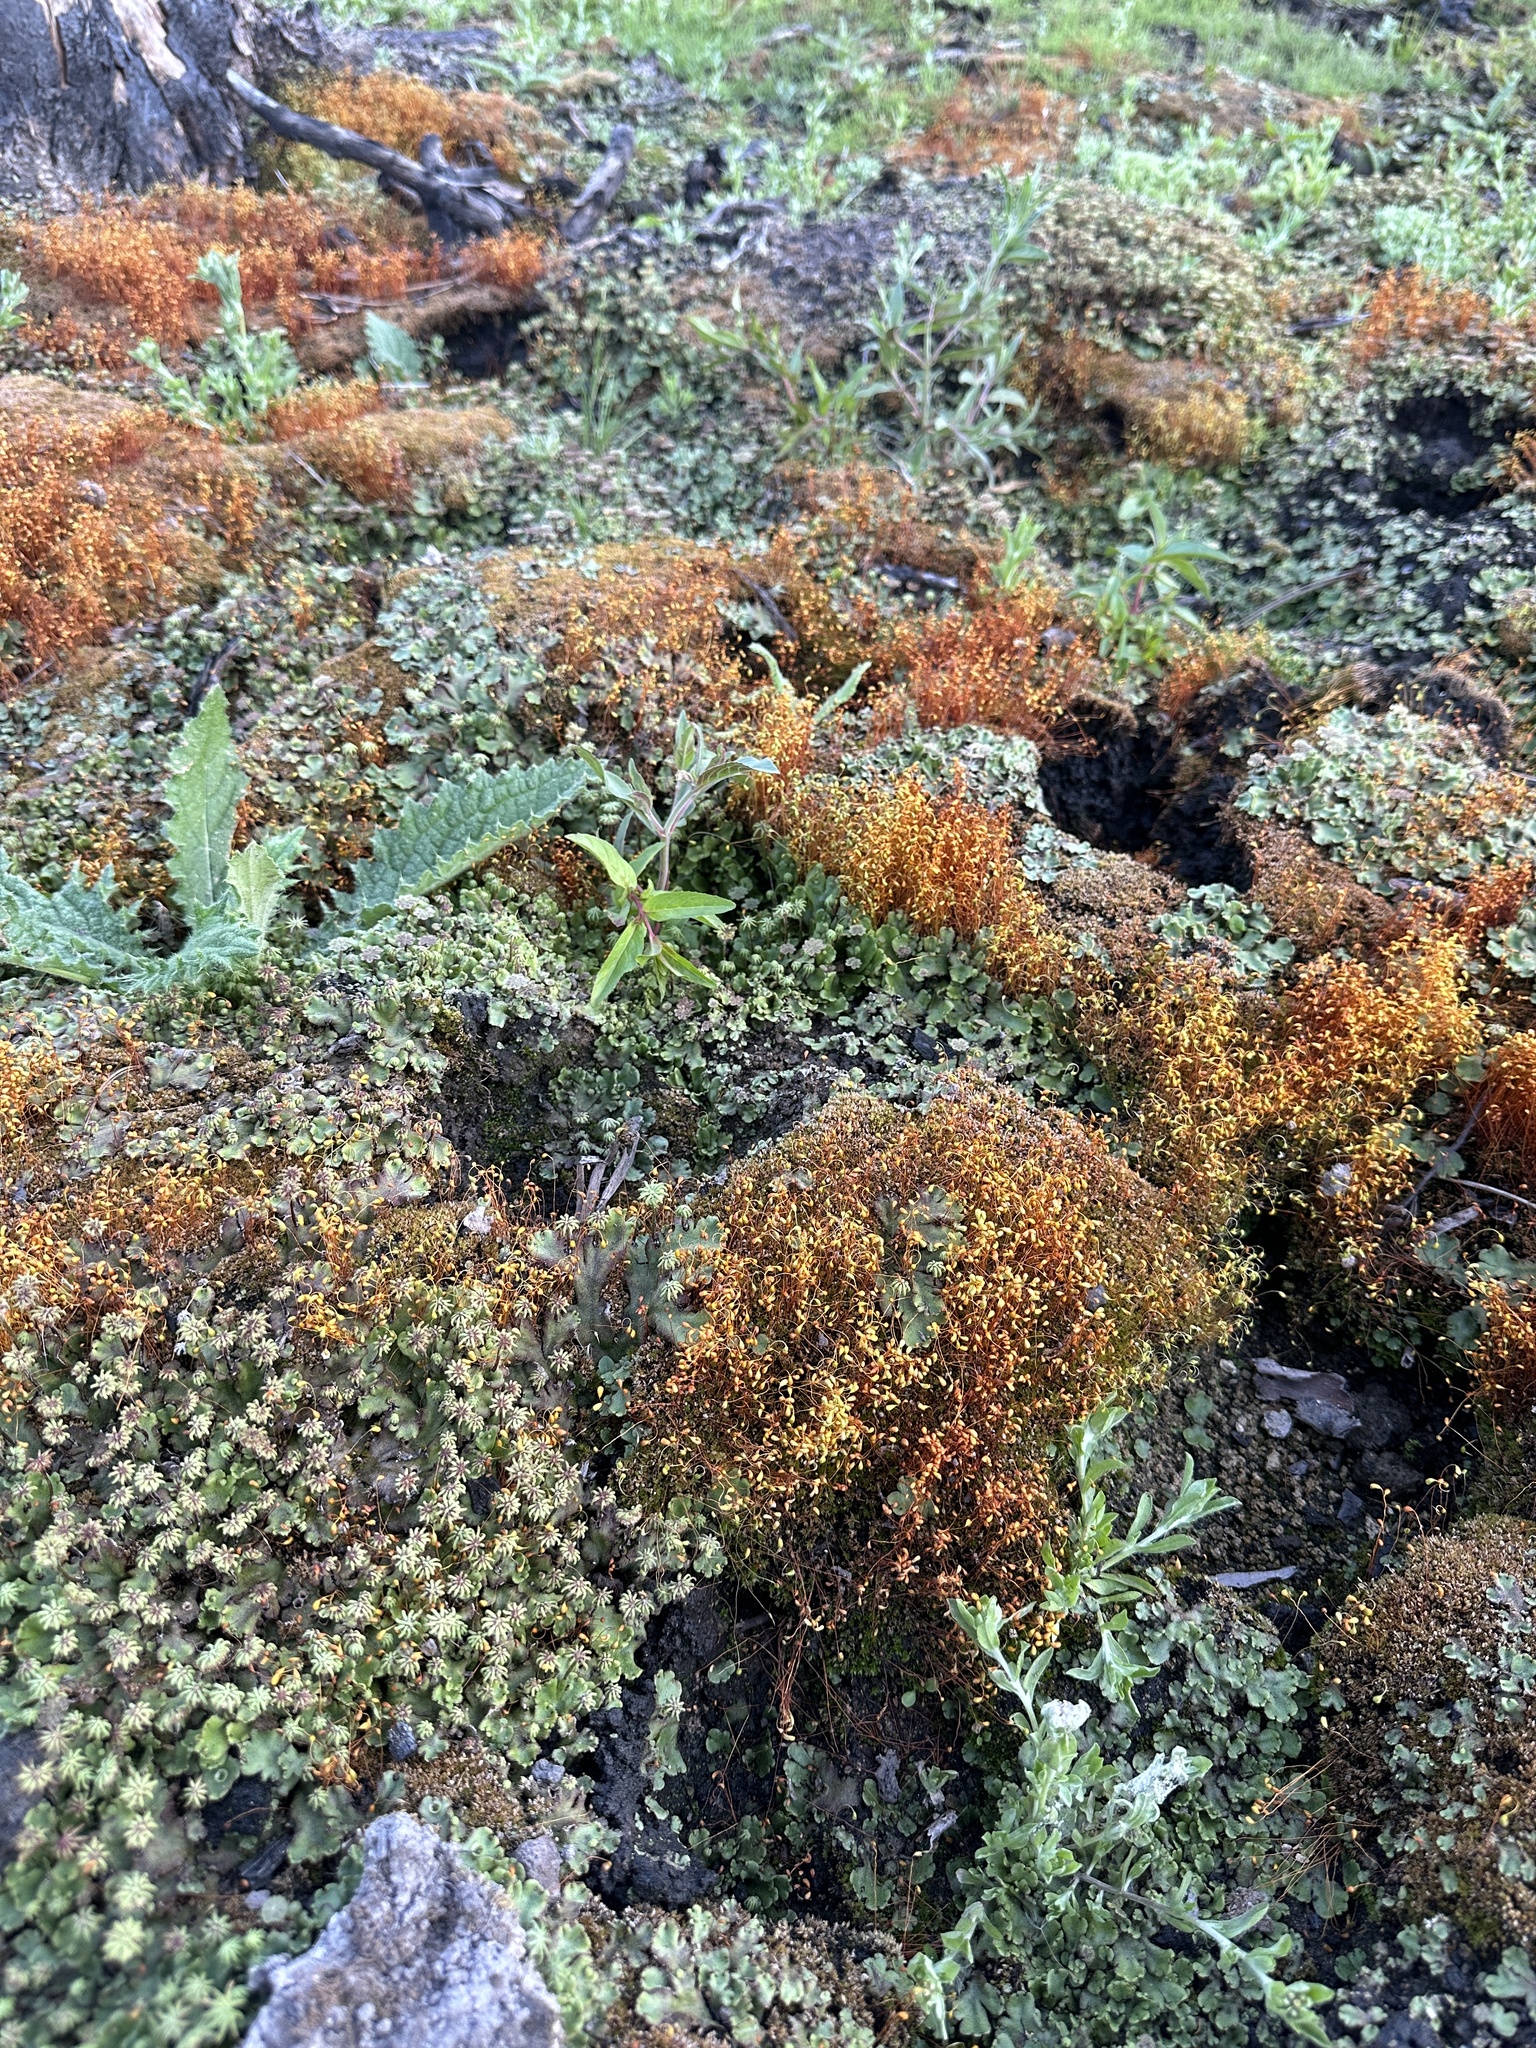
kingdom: Plantae
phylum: Bryophyta
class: Bryopsida
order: Funariales
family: Funariaceae
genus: Funaria
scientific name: Funaria hygrometrica
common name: Common cord moss
